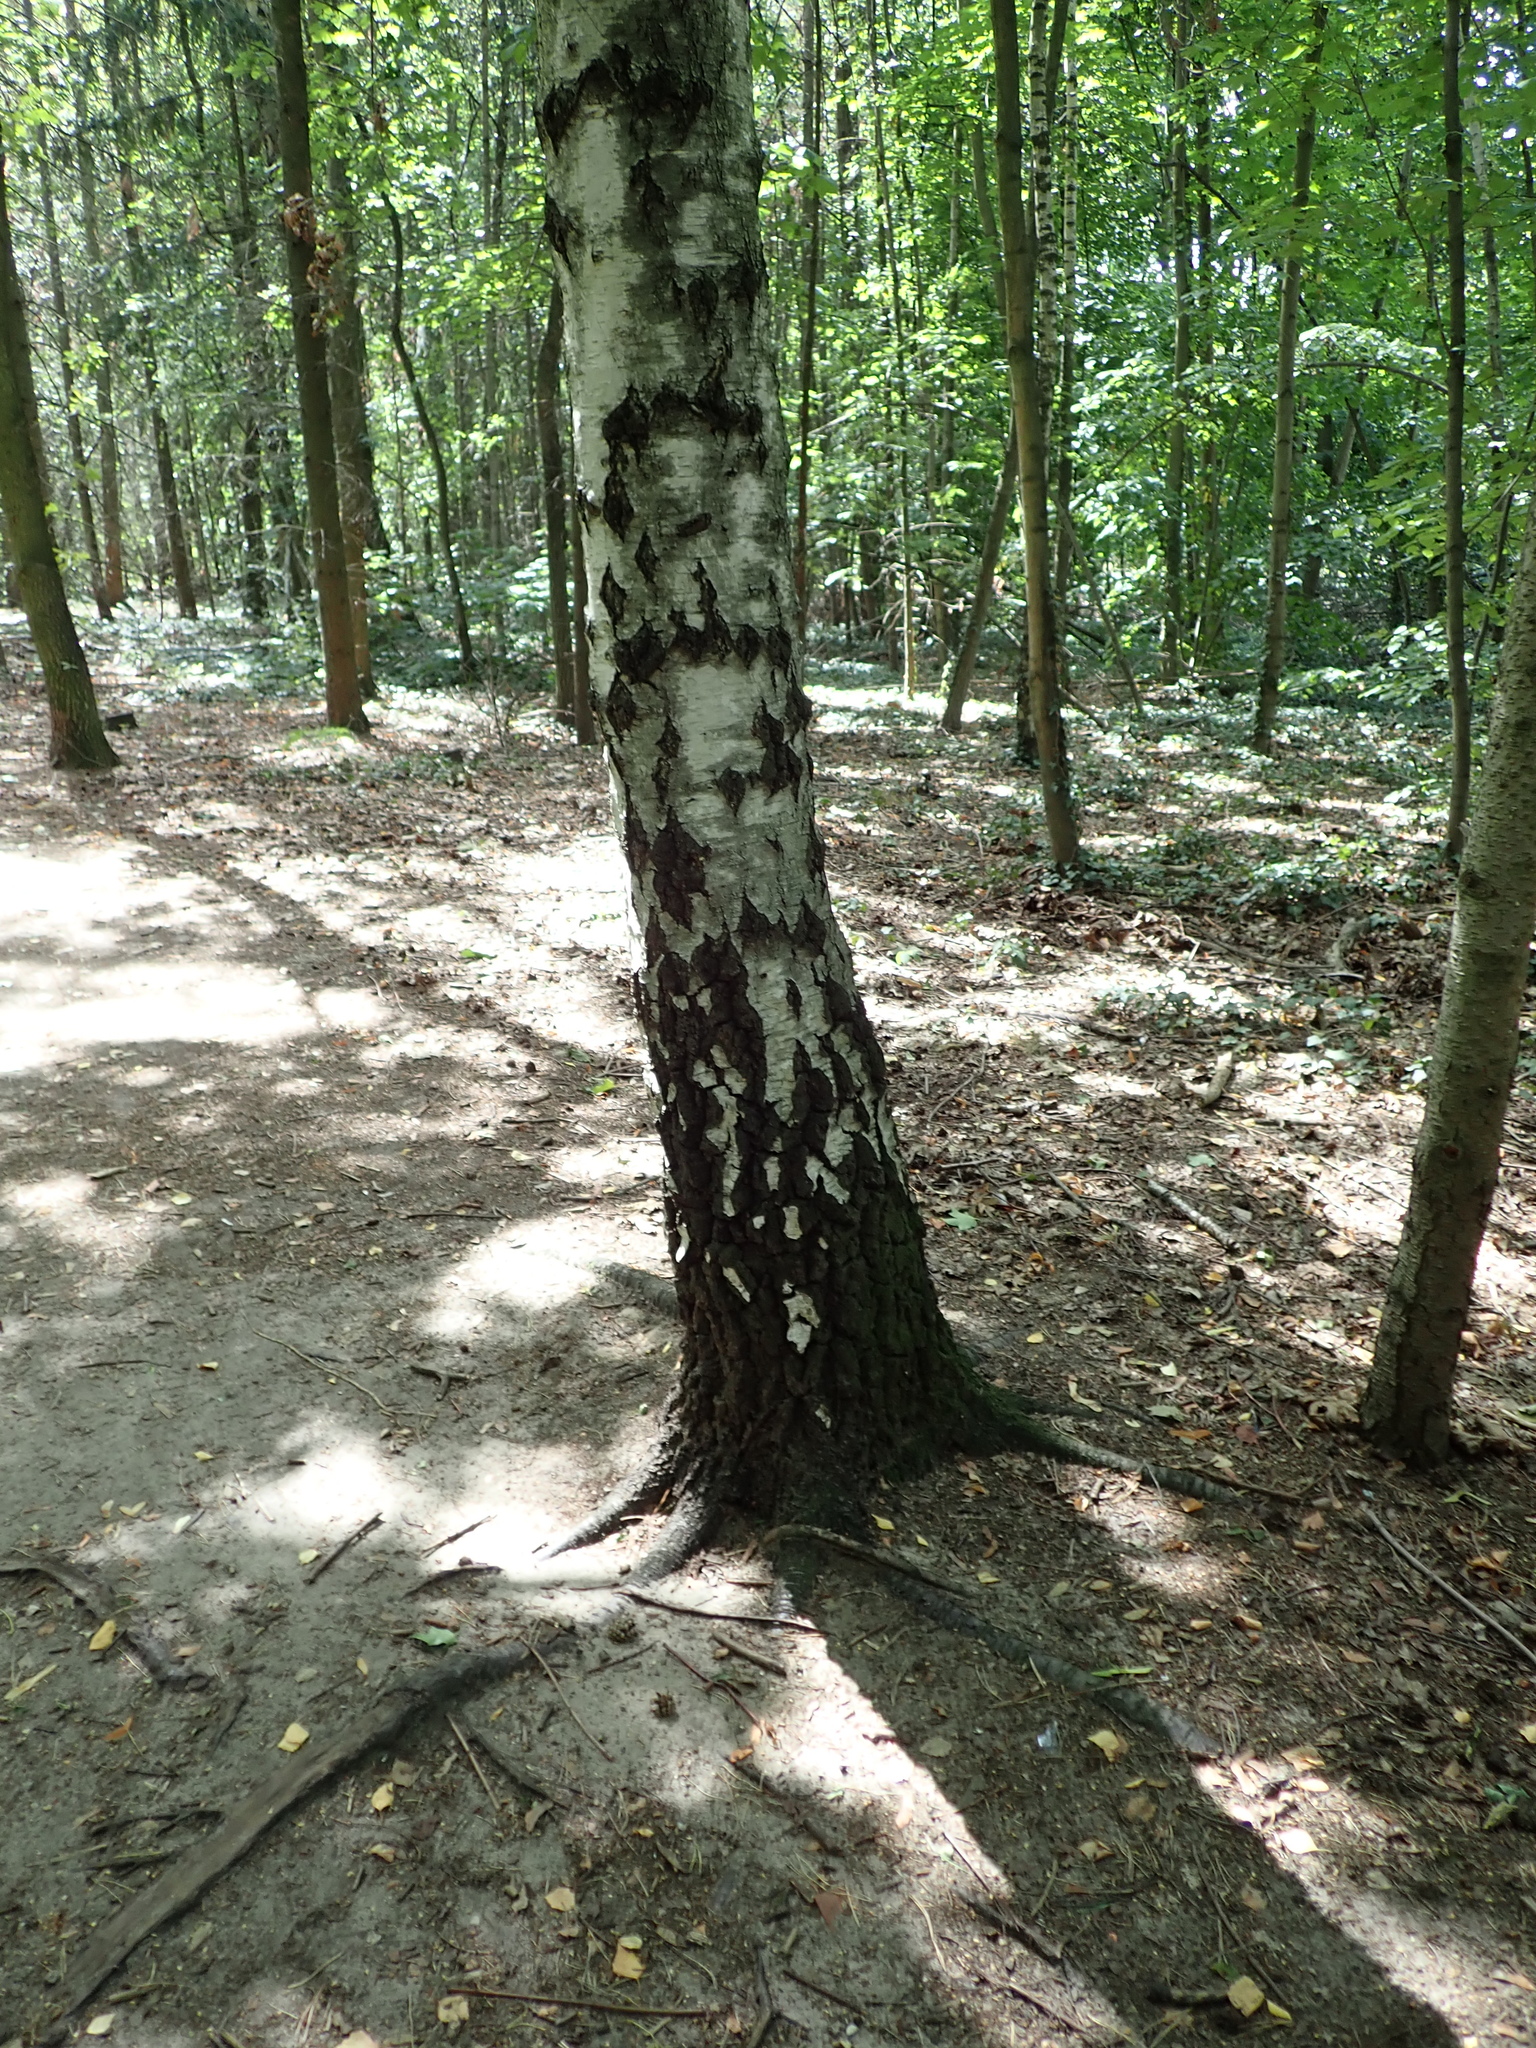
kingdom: Plantae
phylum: Tracheophyta
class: Magnoliopsida
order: Fagales
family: Betulaceae
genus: Betula
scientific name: Betula pendula
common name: Silver birch
